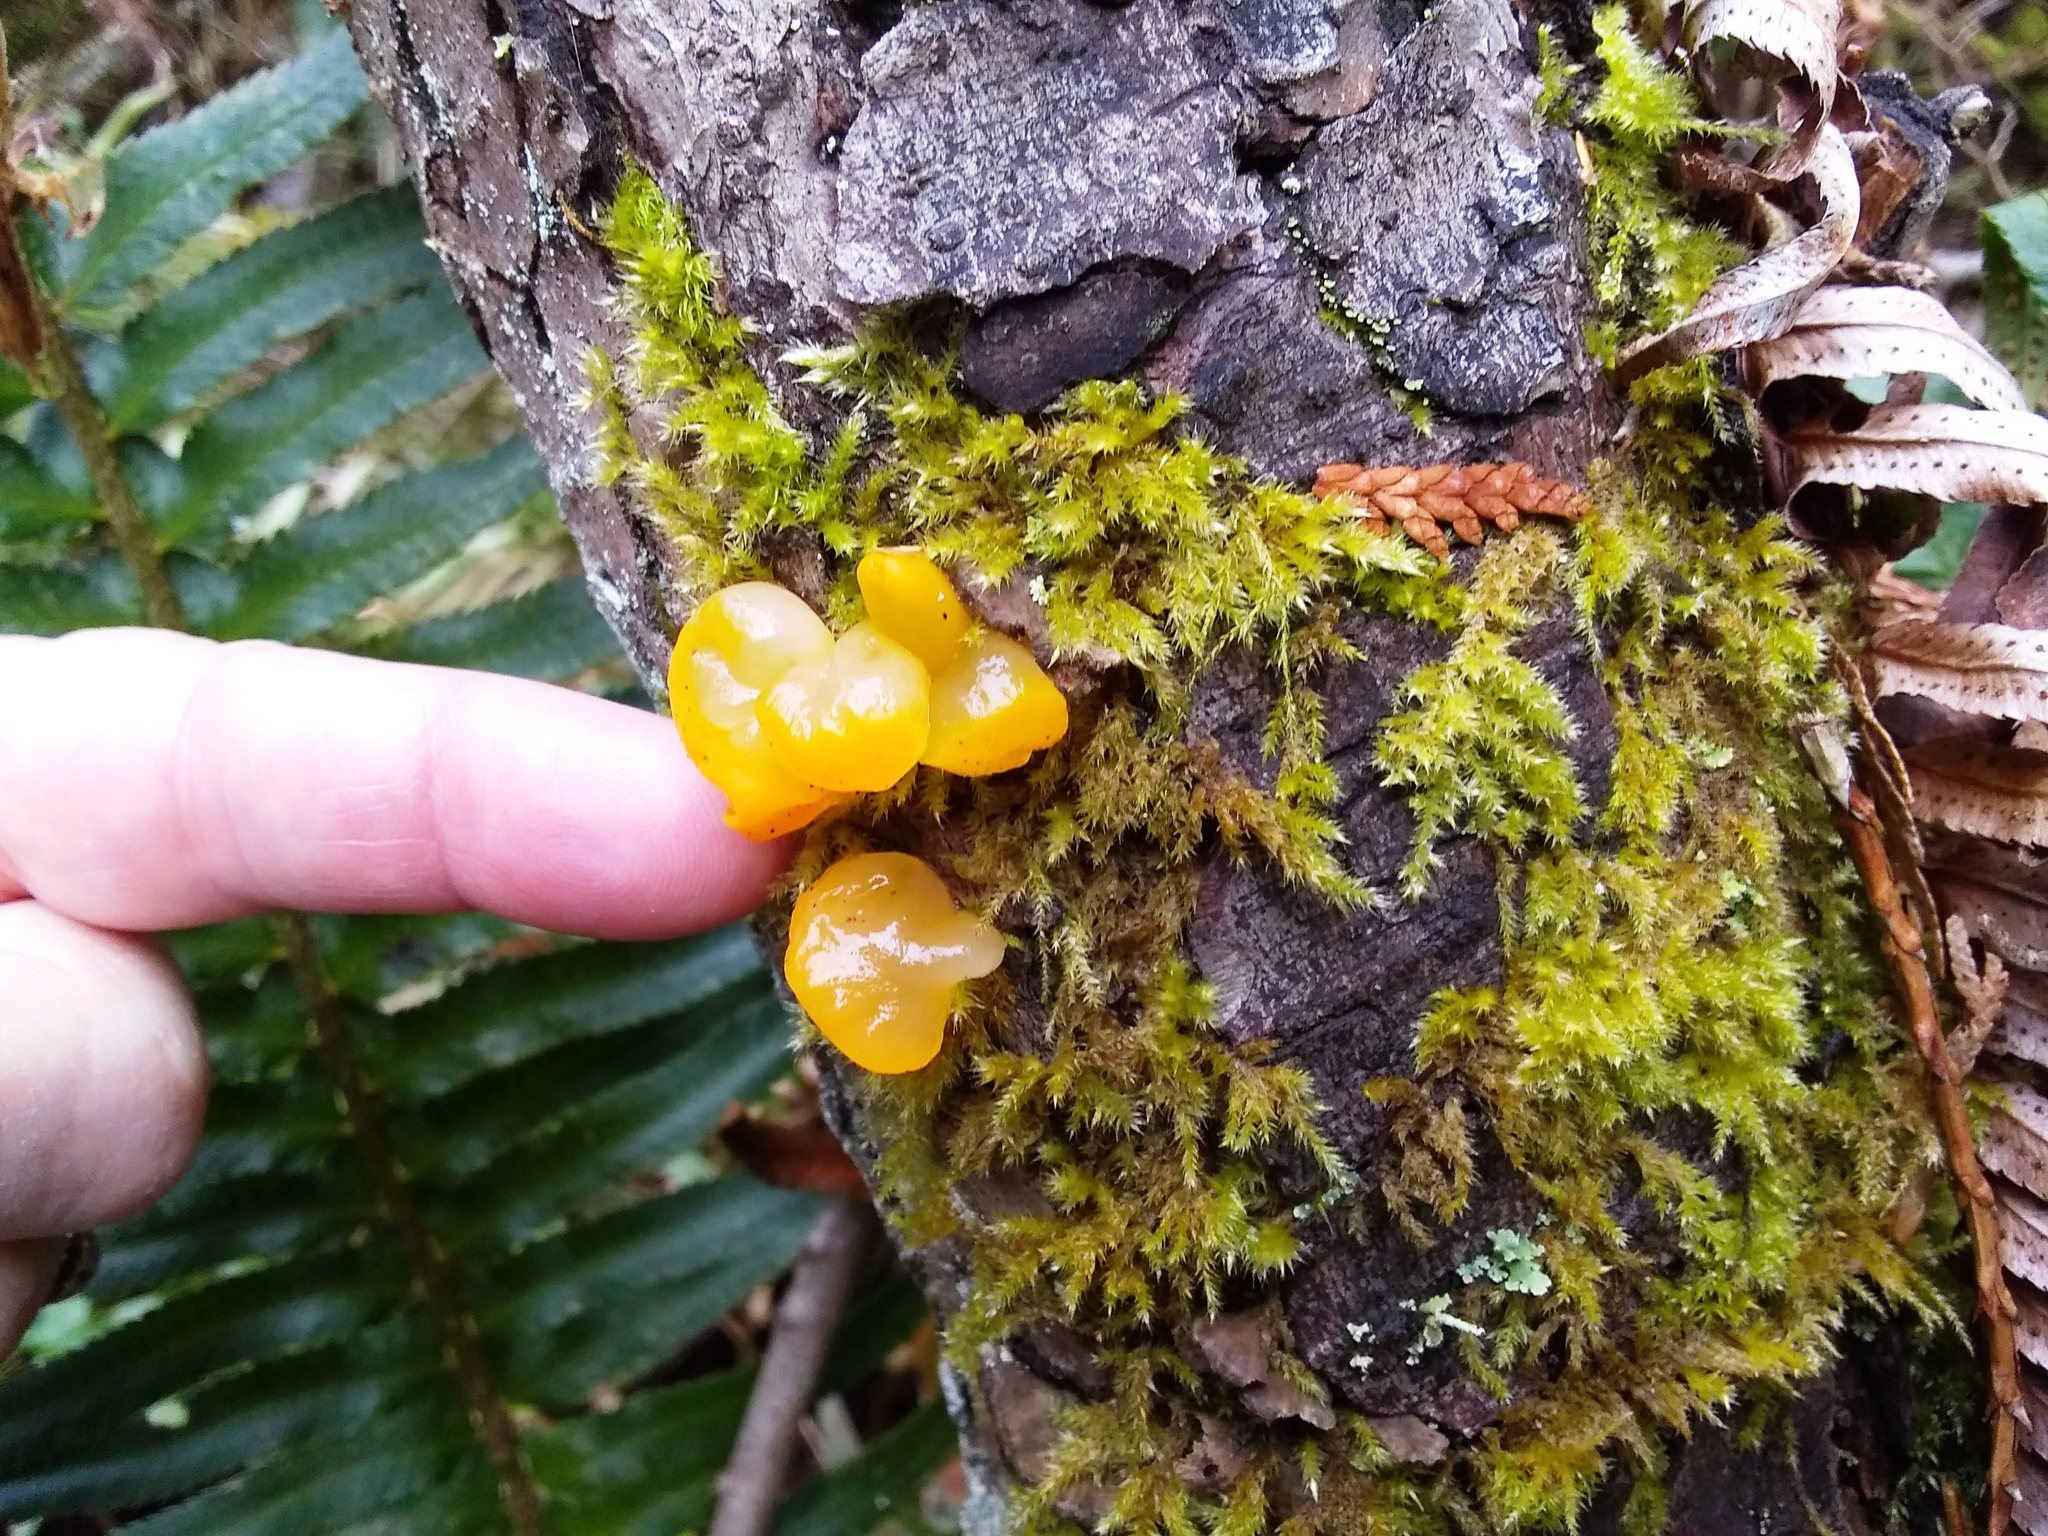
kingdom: Fungi
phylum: Basidiomycota
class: Dacrymycetes
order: Dacrymycetales
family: Dacrymycetaceae
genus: Dacrymyces
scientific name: Dacrymyces chrysospermus
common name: Orange jelly spot
